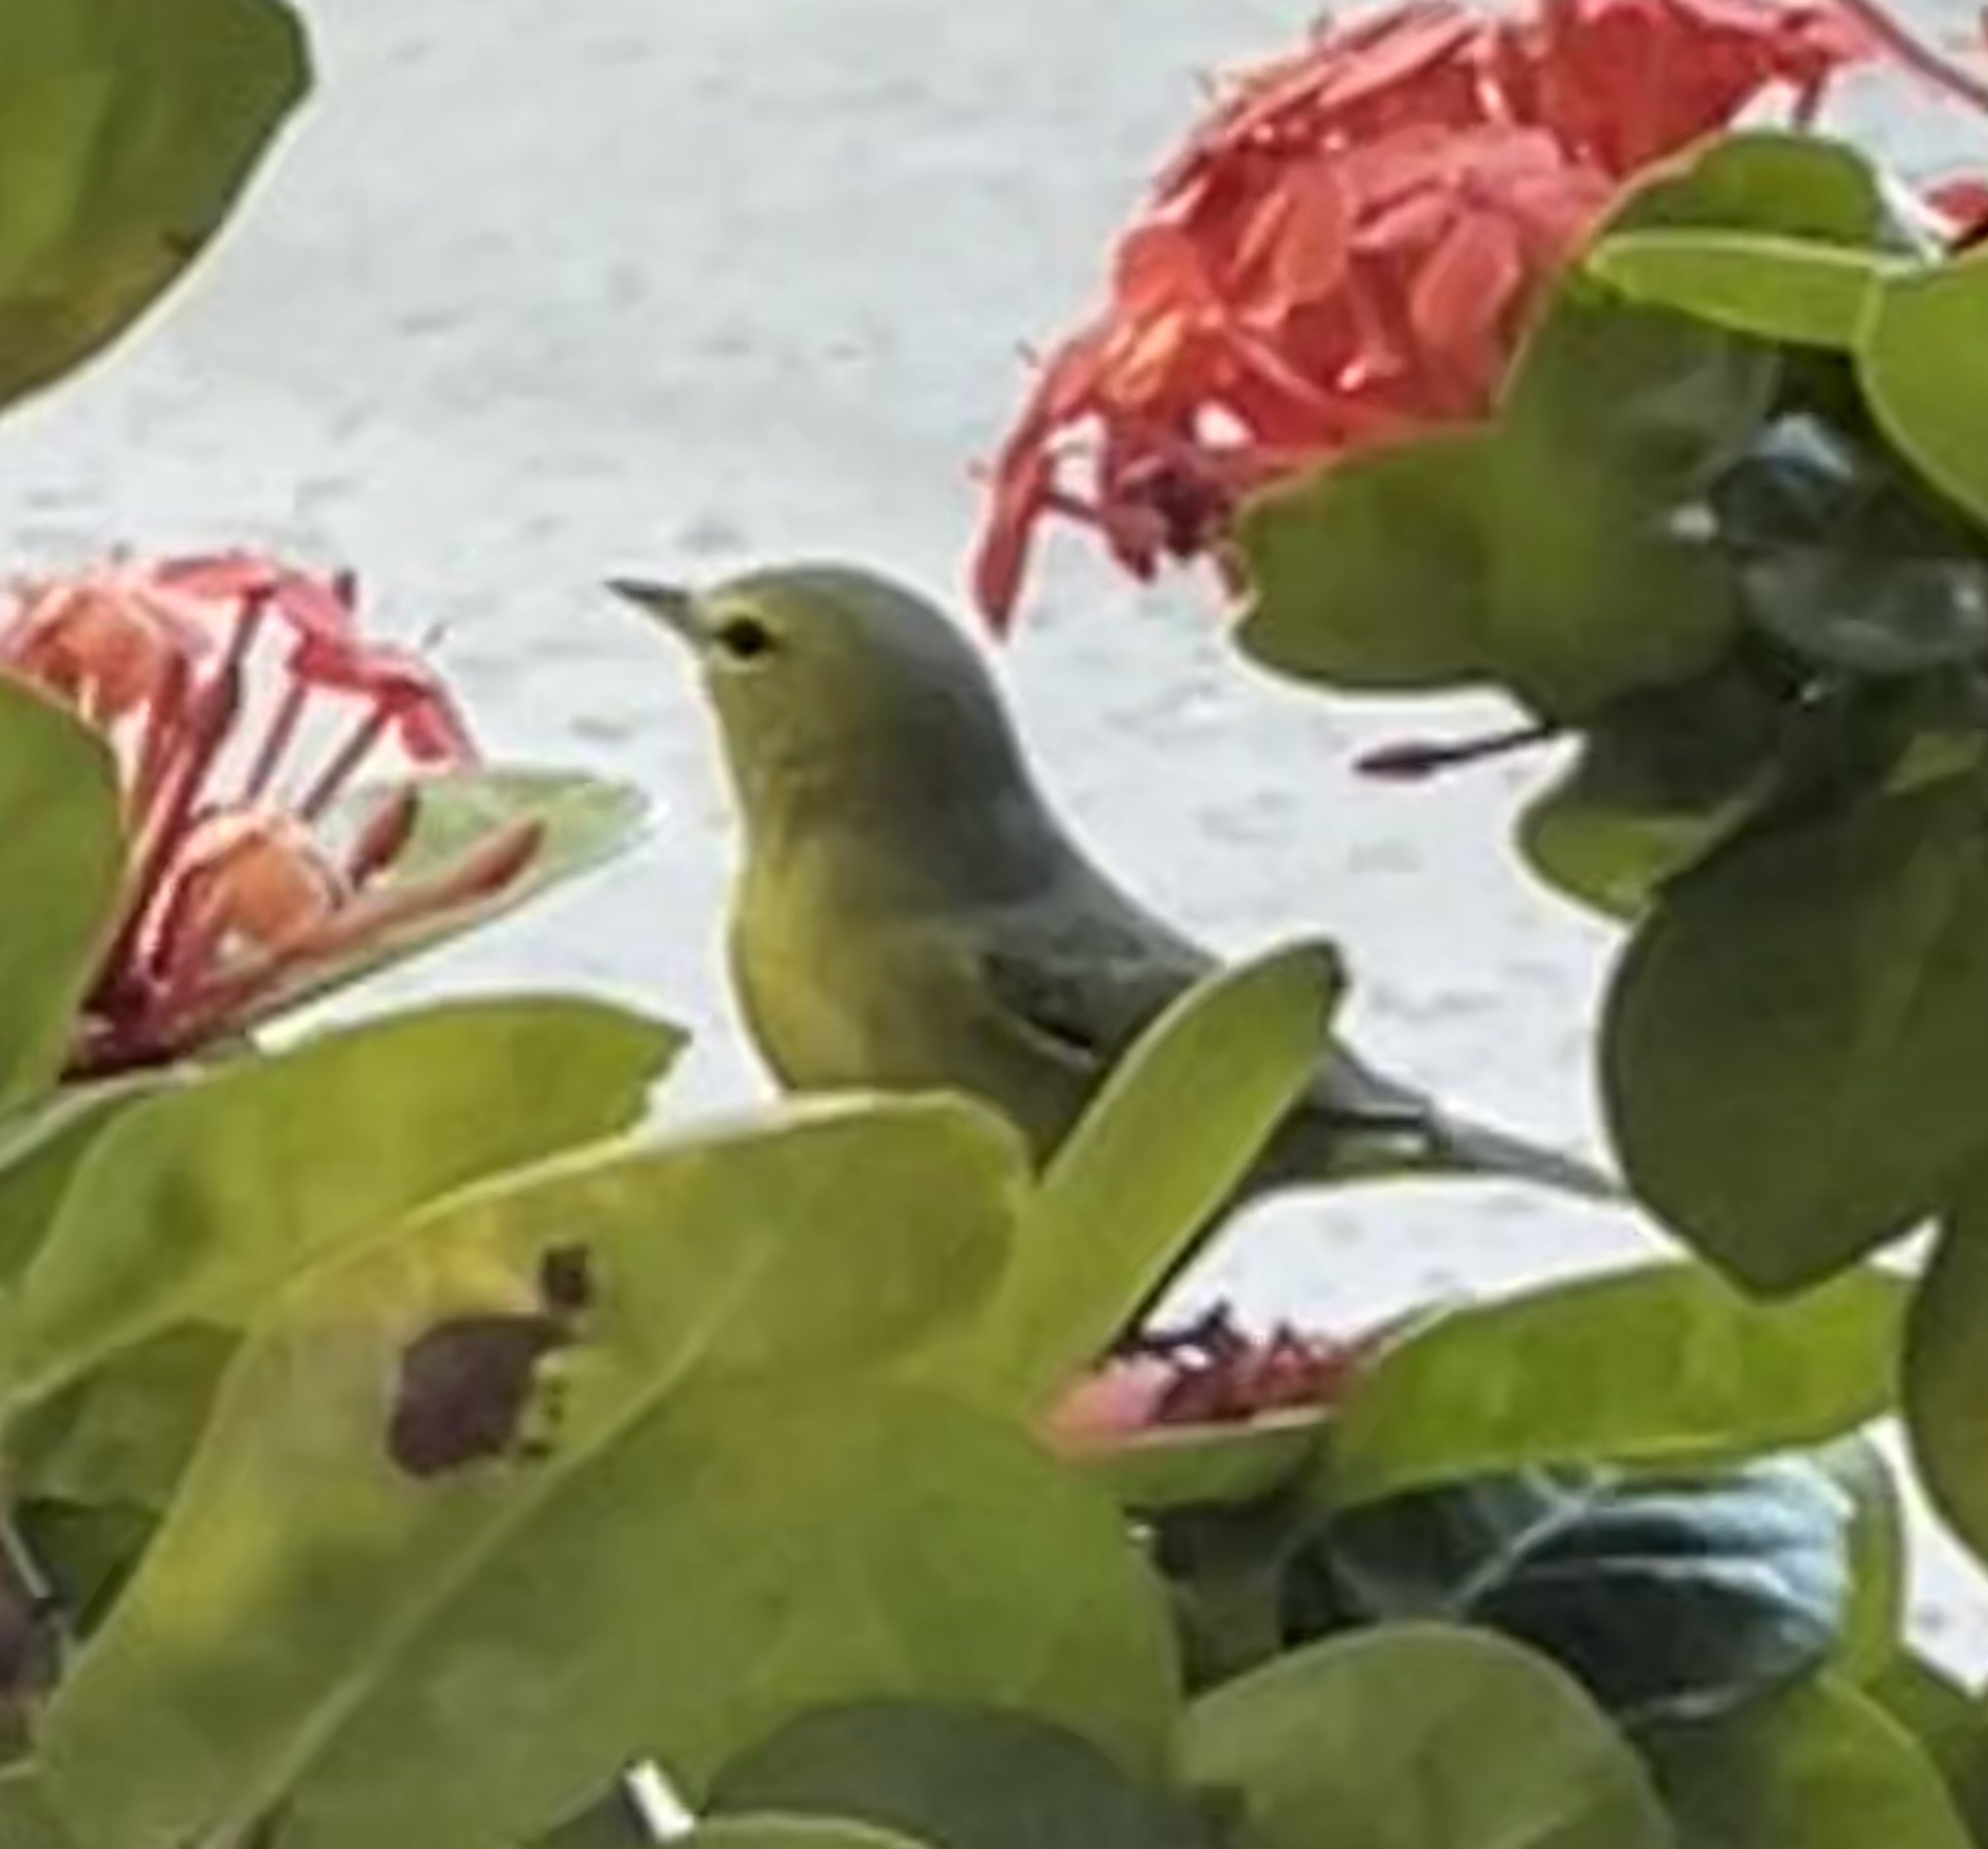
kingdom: Animalia
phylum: Chordata
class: Aves
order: Passeriformes
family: Parulidae
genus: Leiothlypis
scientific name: Leiothlypis celata
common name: Orange-crowned warbler
